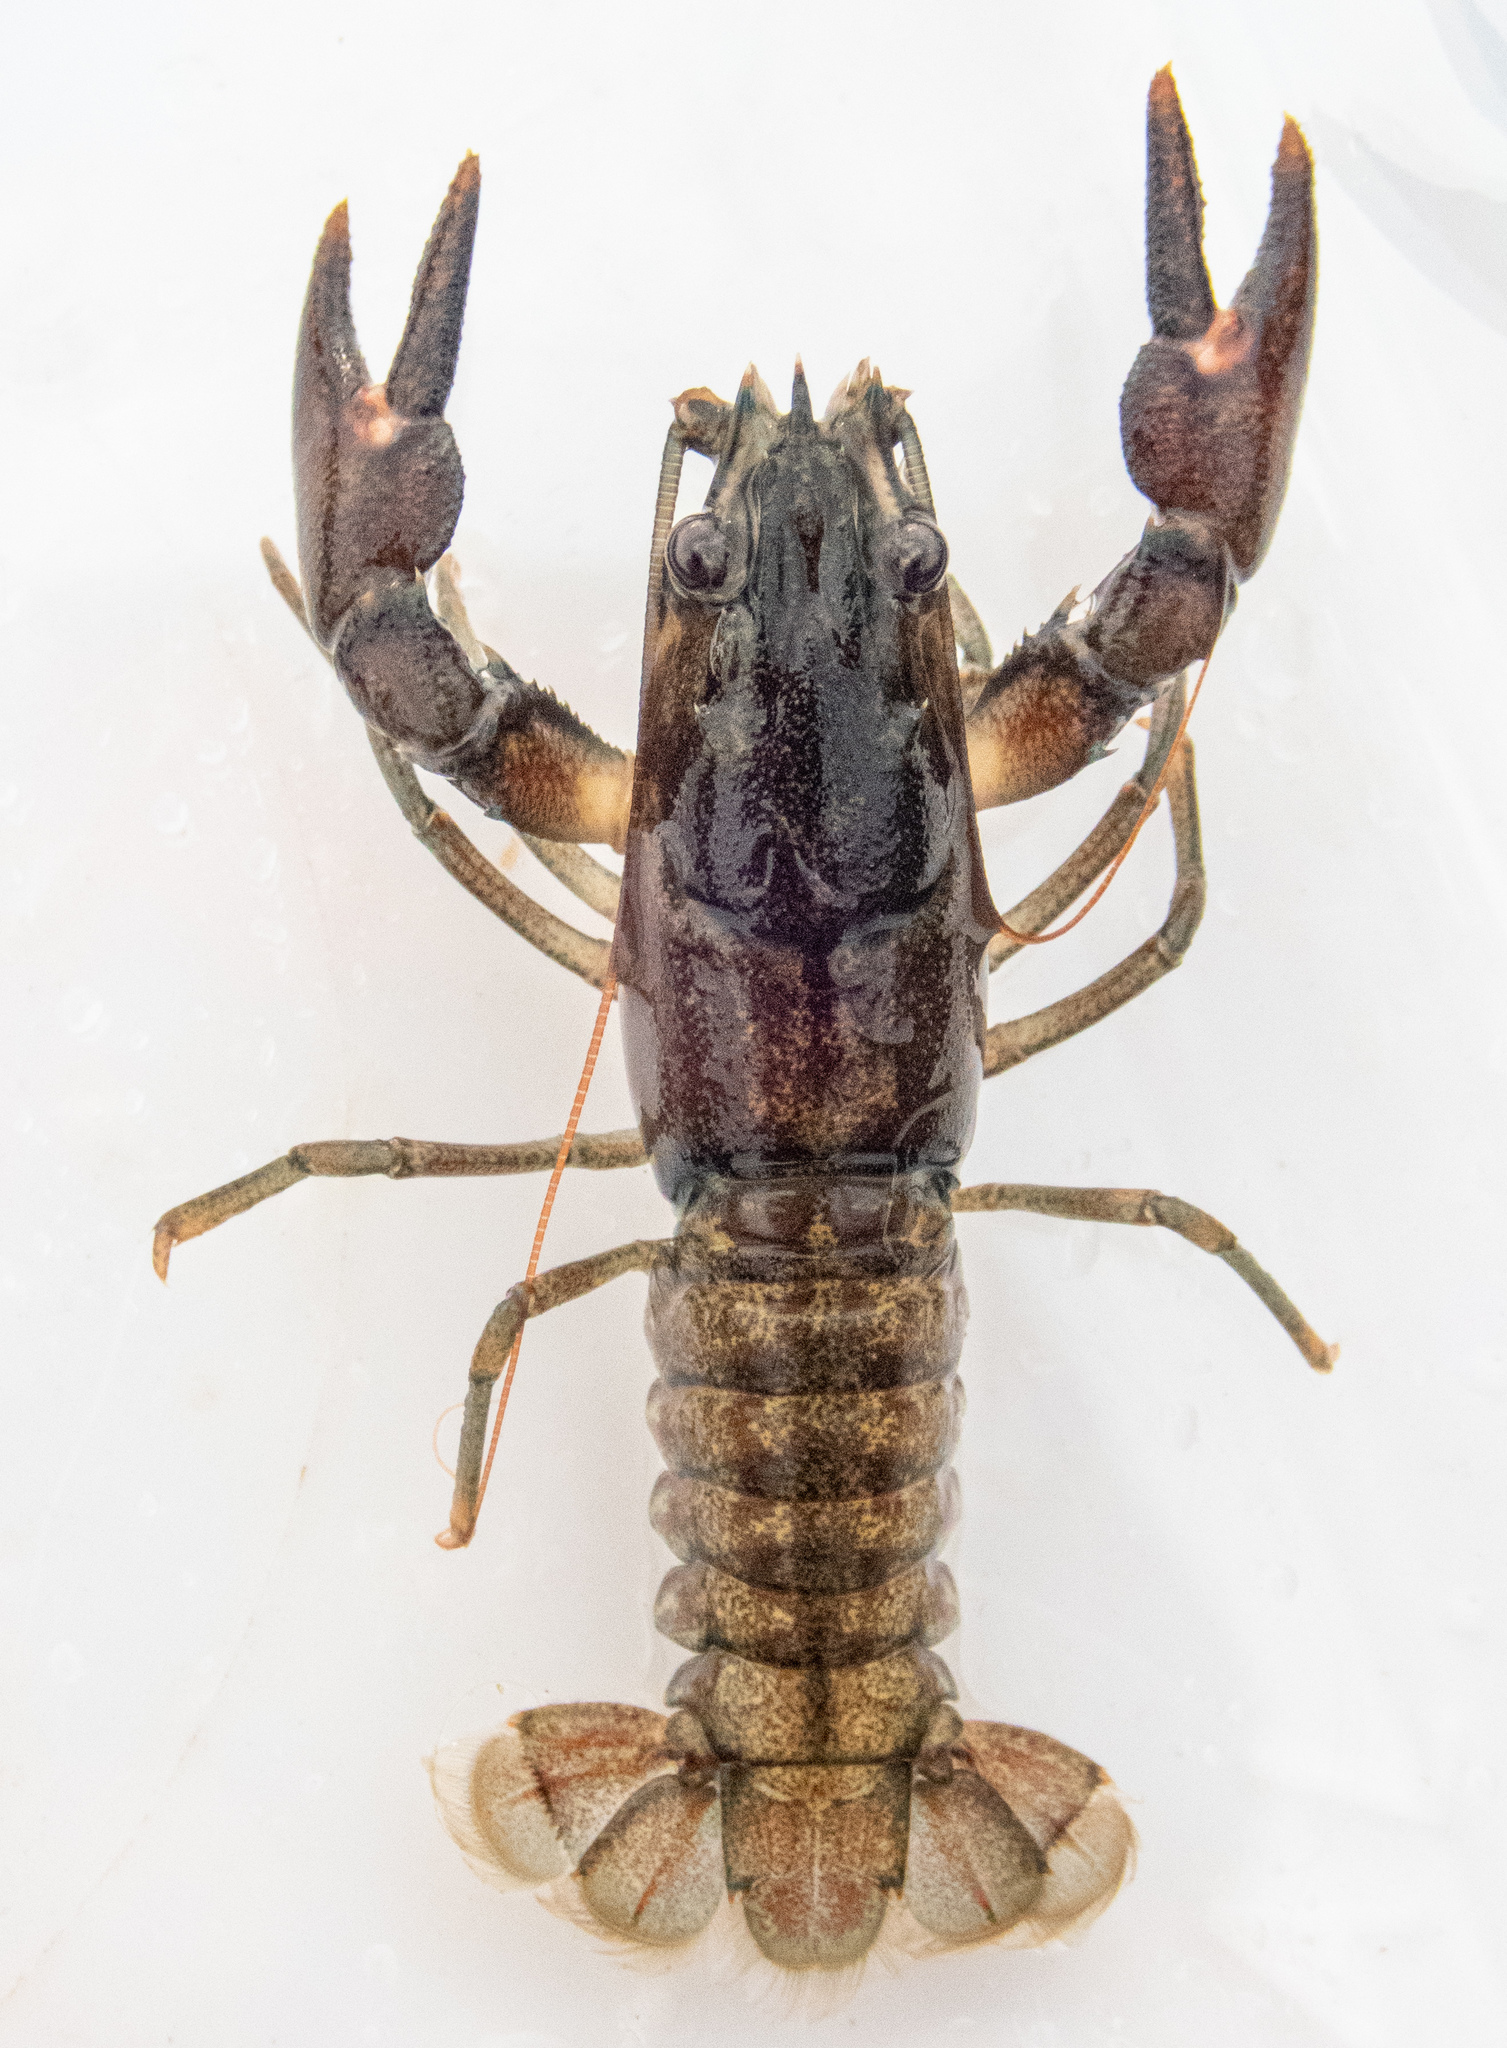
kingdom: Animalia
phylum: Arthropoda
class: Malacostraca
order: Decapoda
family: Astacidae
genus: Pacifastacus
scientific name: Pacifastacus leniusculus
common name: Signal crayfish
